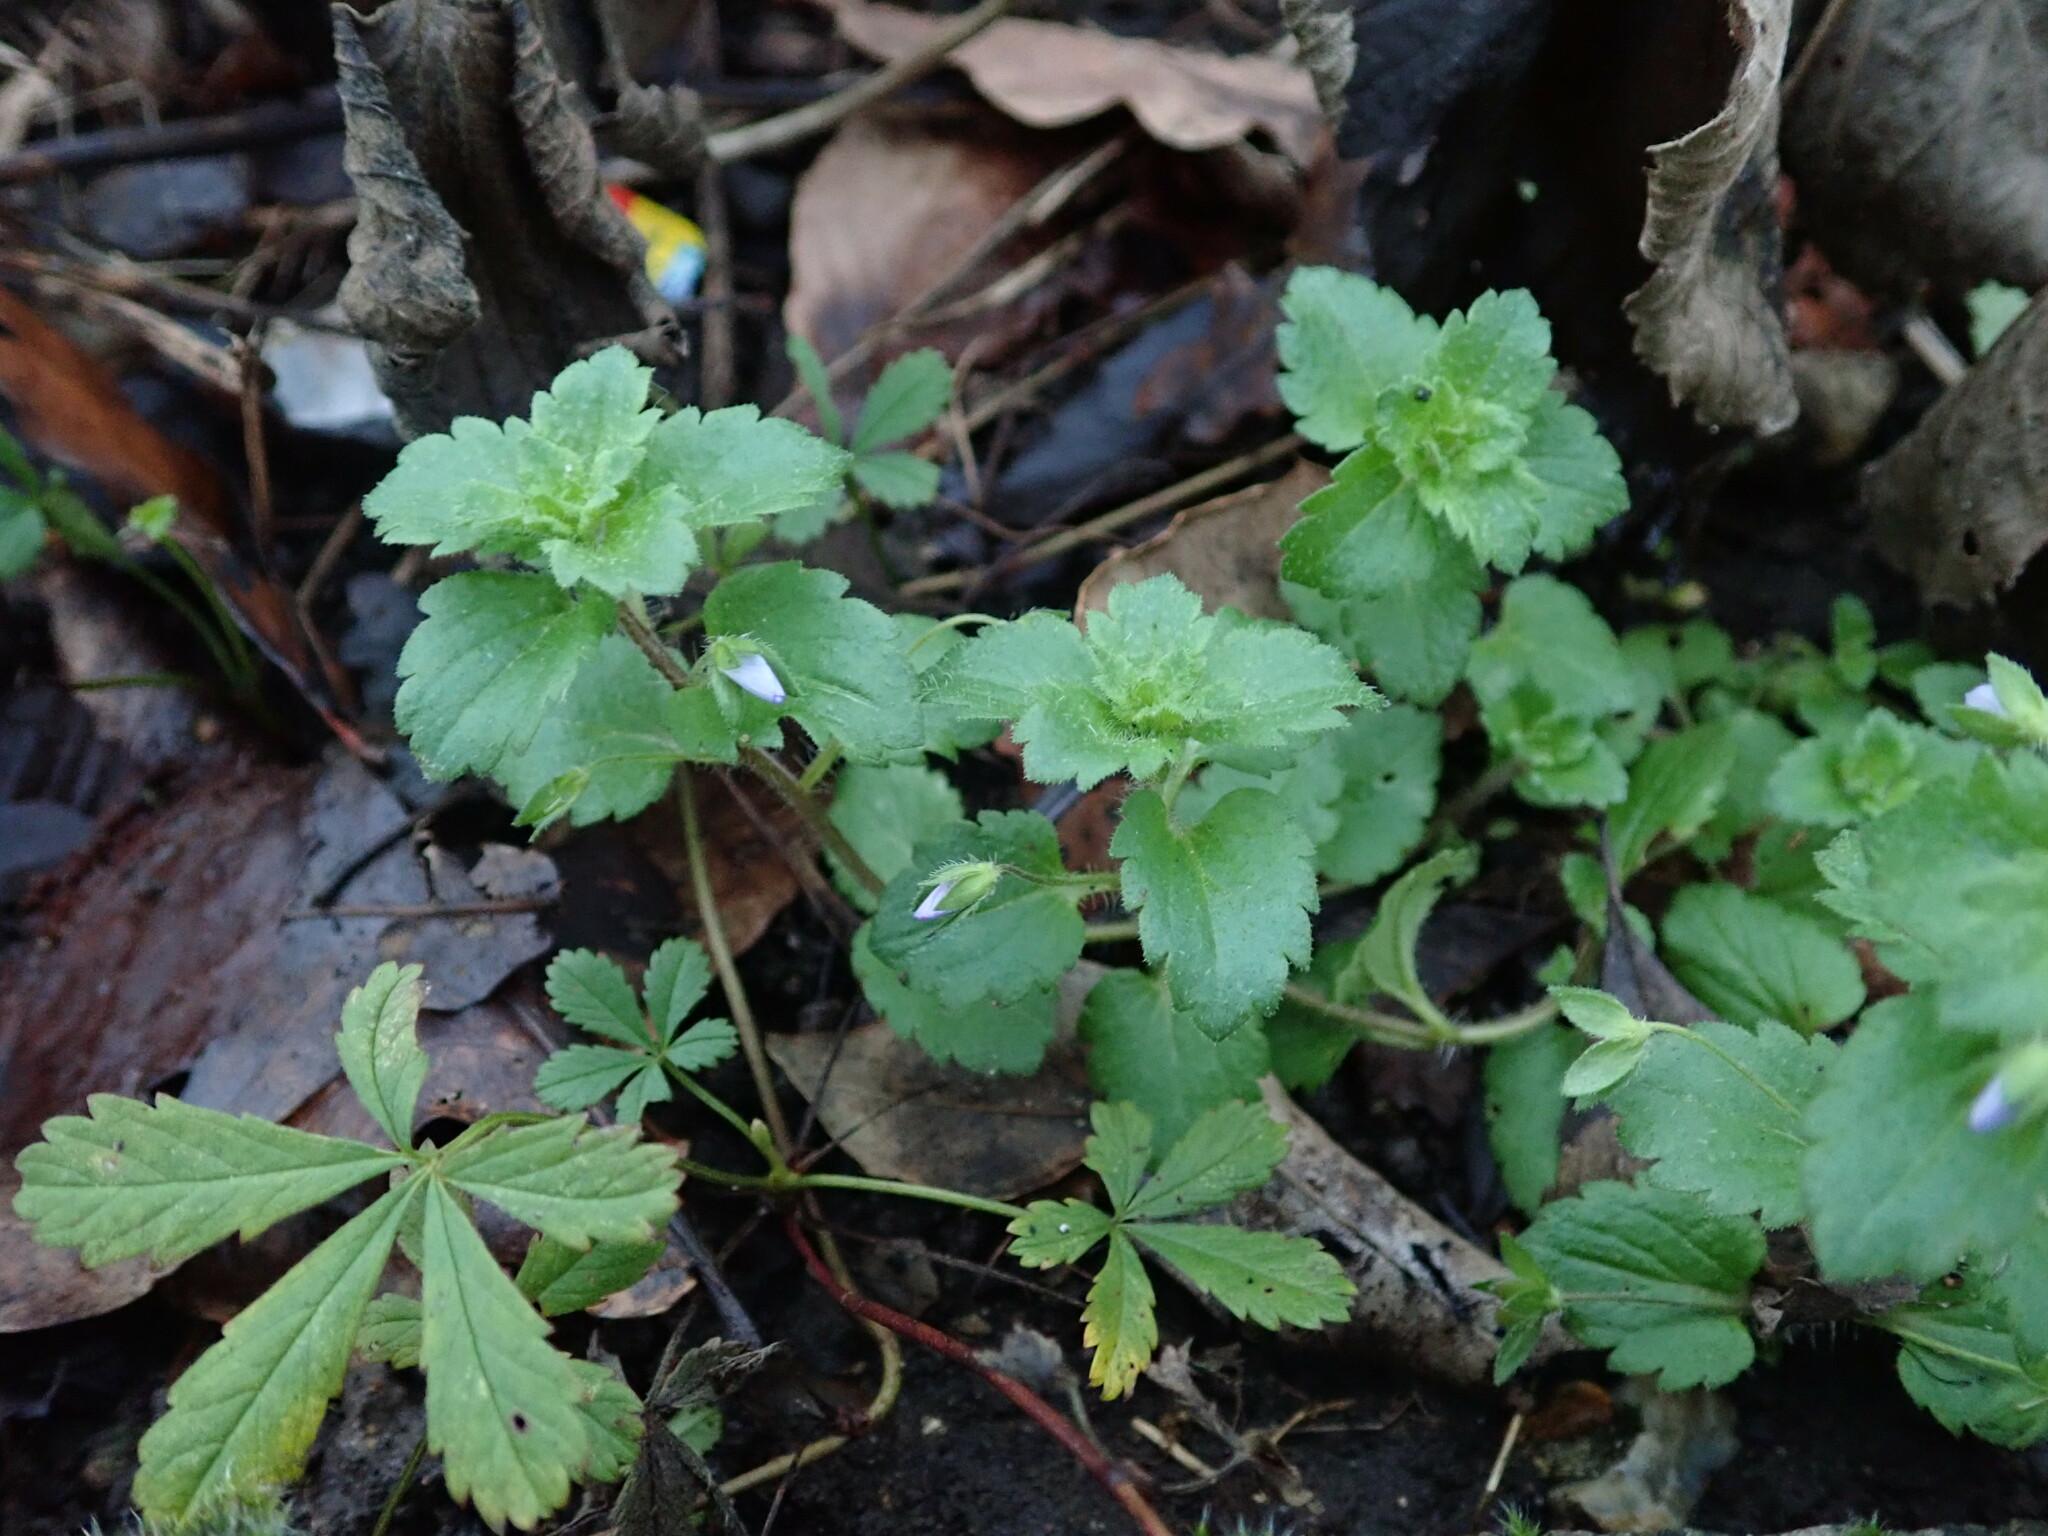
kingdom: Plantae
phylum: Tracheophyta
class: Magnoliopsida
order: Lamiales
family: Plantaginaceae
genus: Veronica
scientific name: Veronica persica
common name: Common field-speedwell
